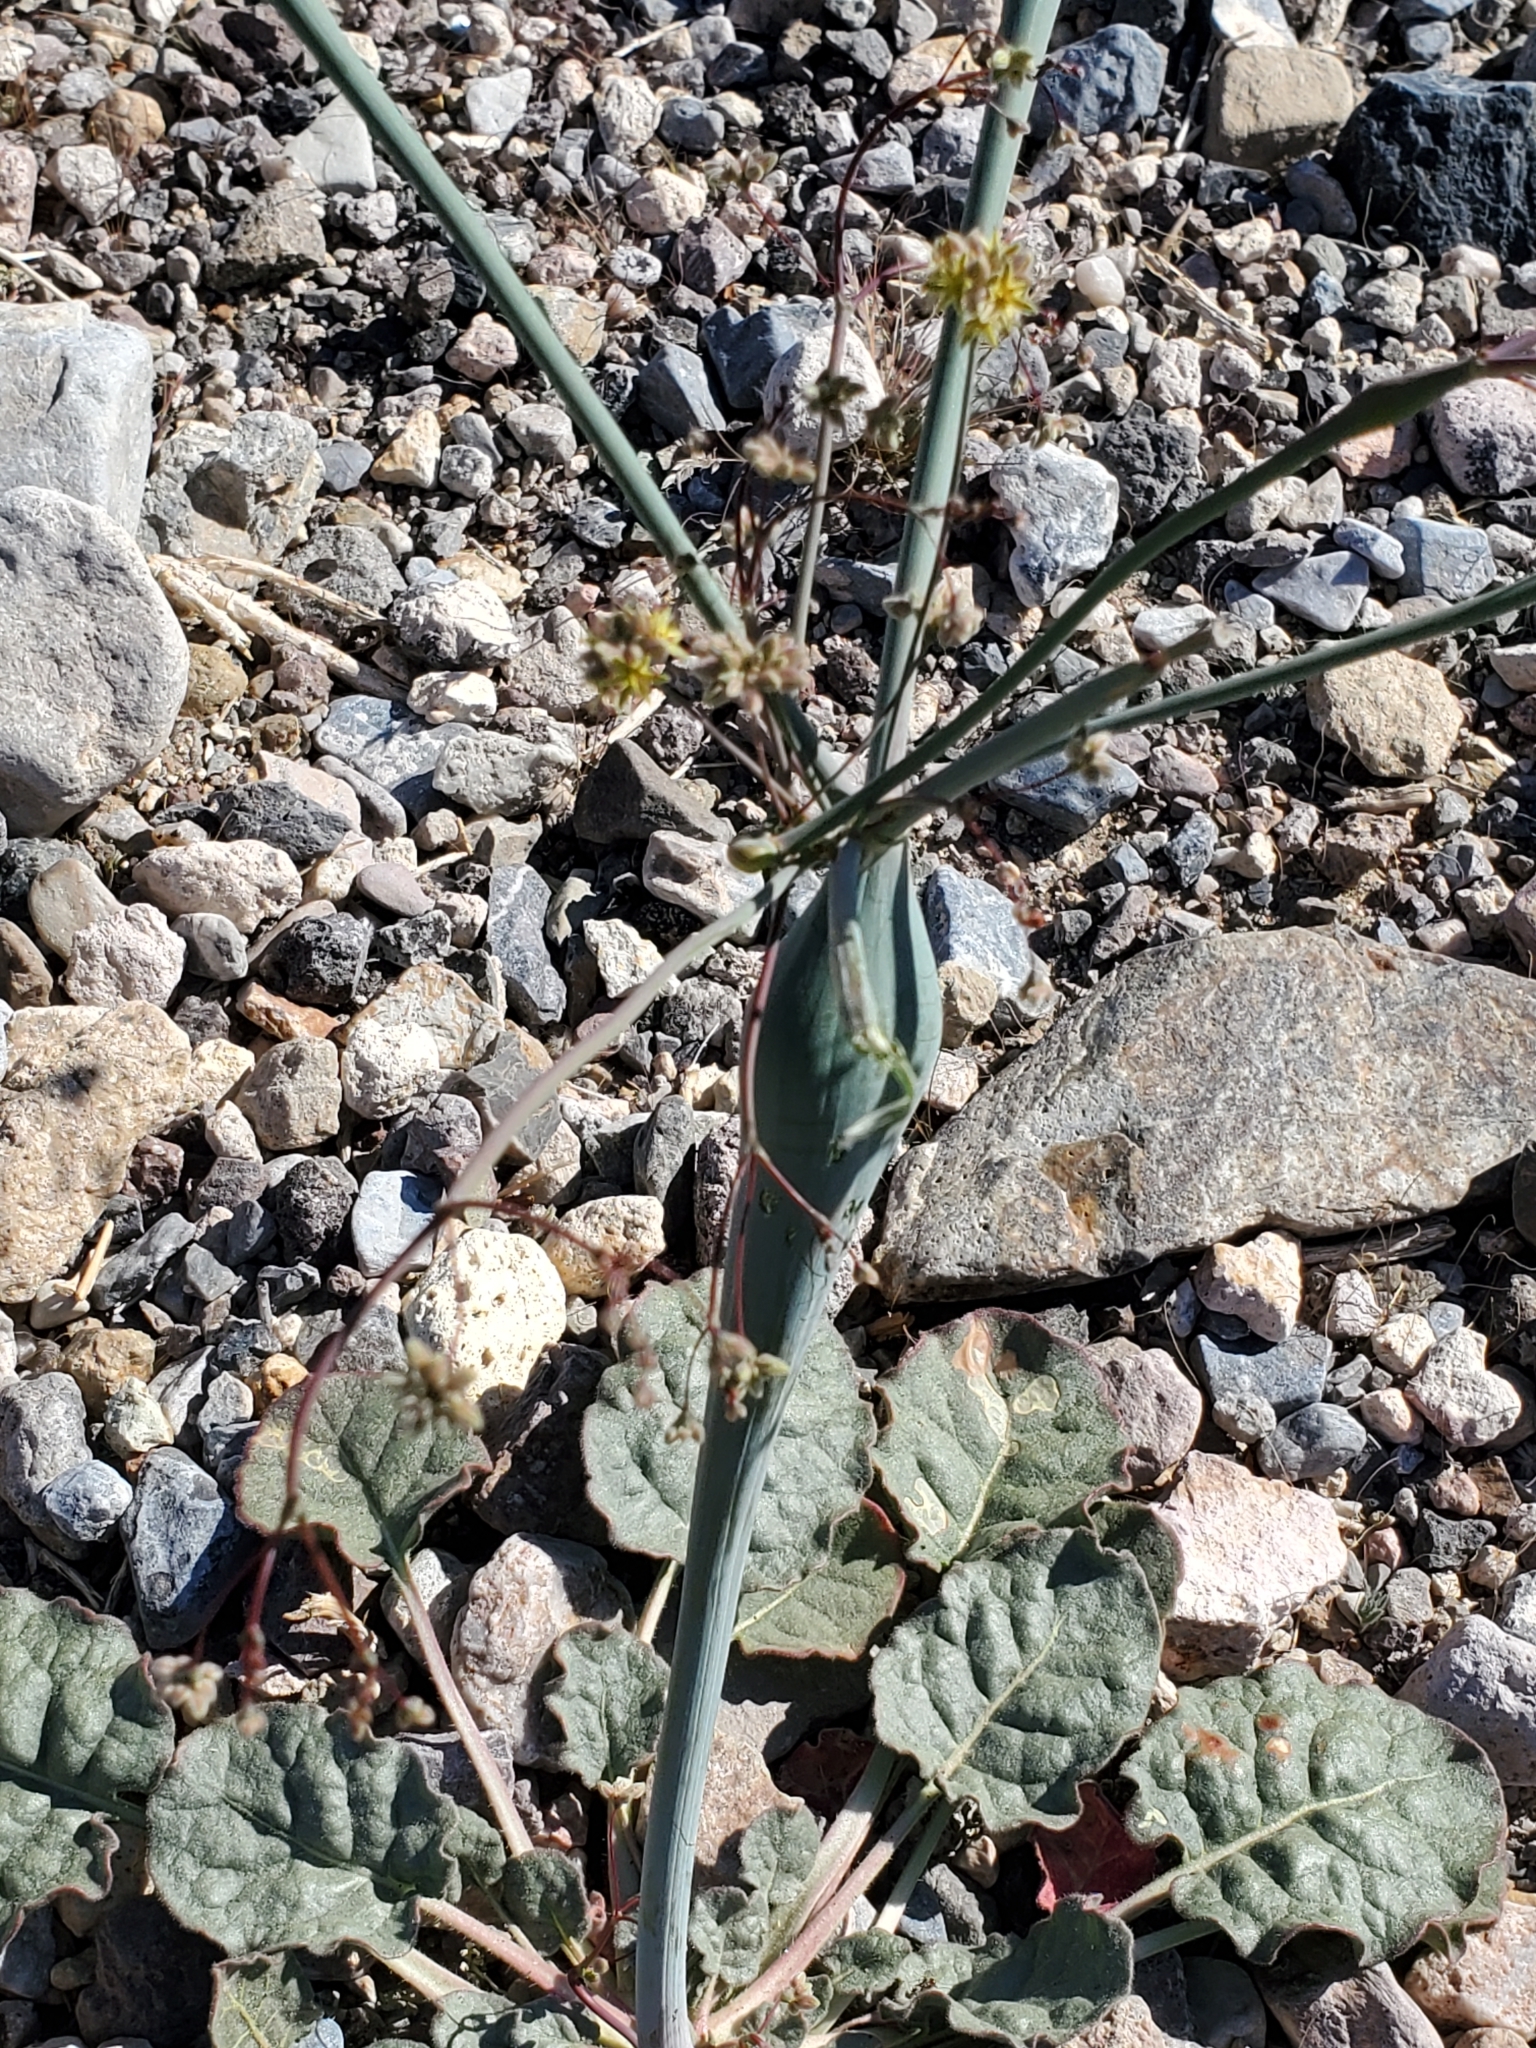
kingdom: Plantae
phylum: Tracheophyta
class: Magnoliopsida
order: Caryophyllales
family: Polygonaceae
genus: Eriogonum
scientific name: Eriogonum inflatum
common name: Desert trumpet
